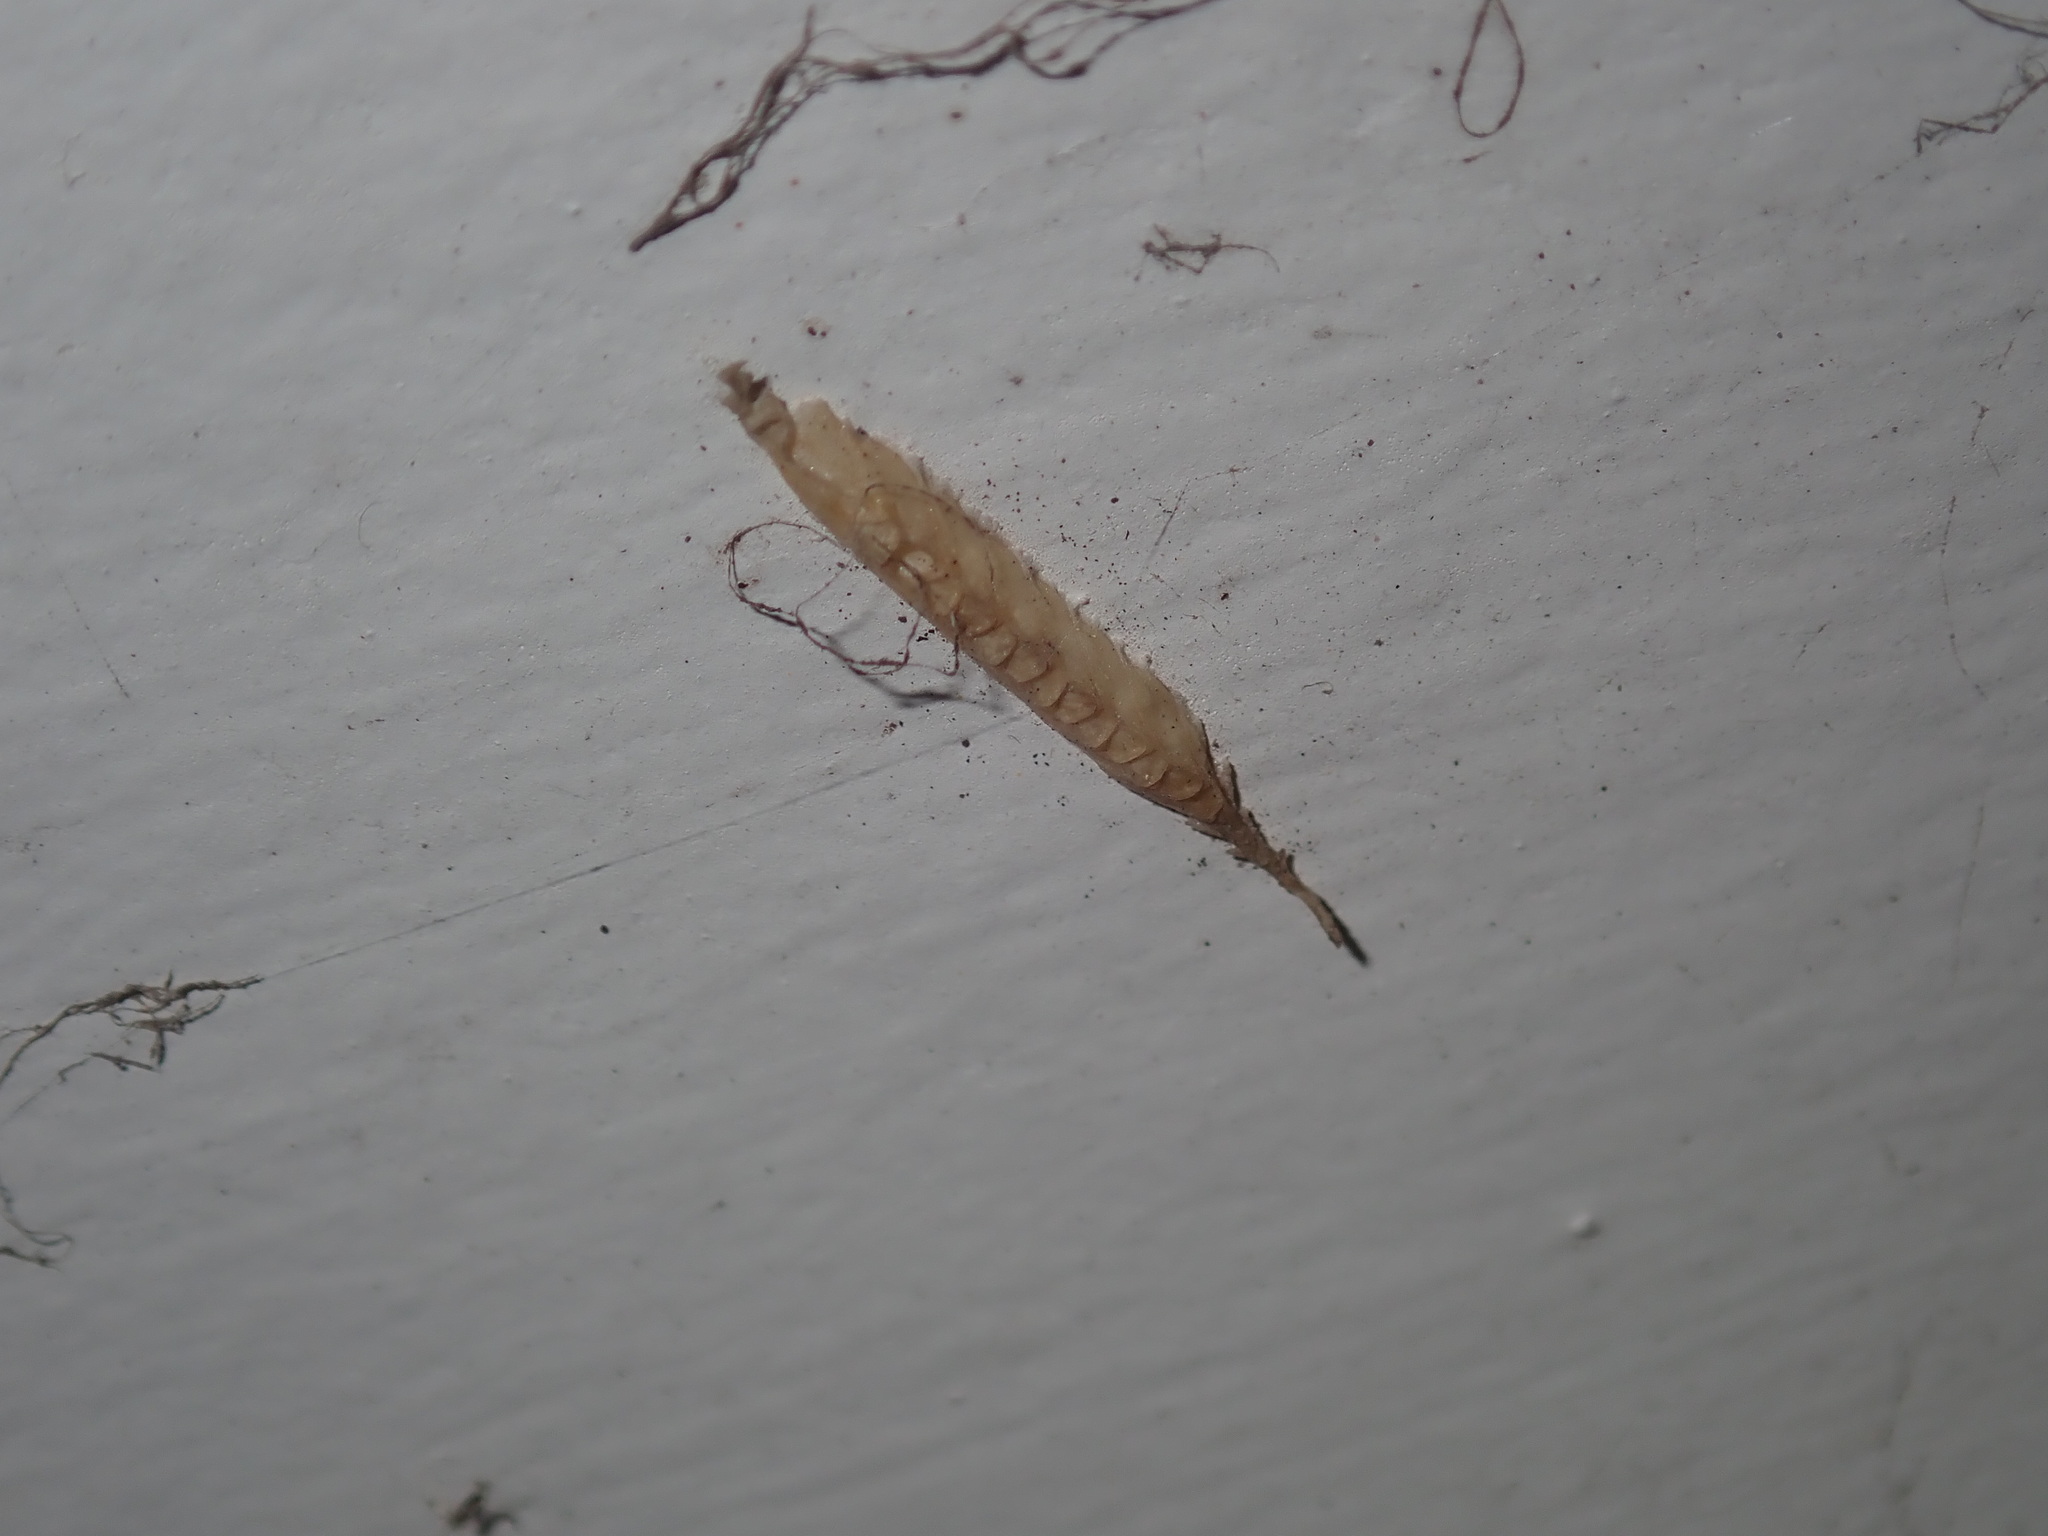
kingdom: Animalia
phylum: Arthropoda
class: Insecta
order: Mantodea
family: Nanomantidae
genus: Kongobatha
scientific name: Kongobatha diademata
